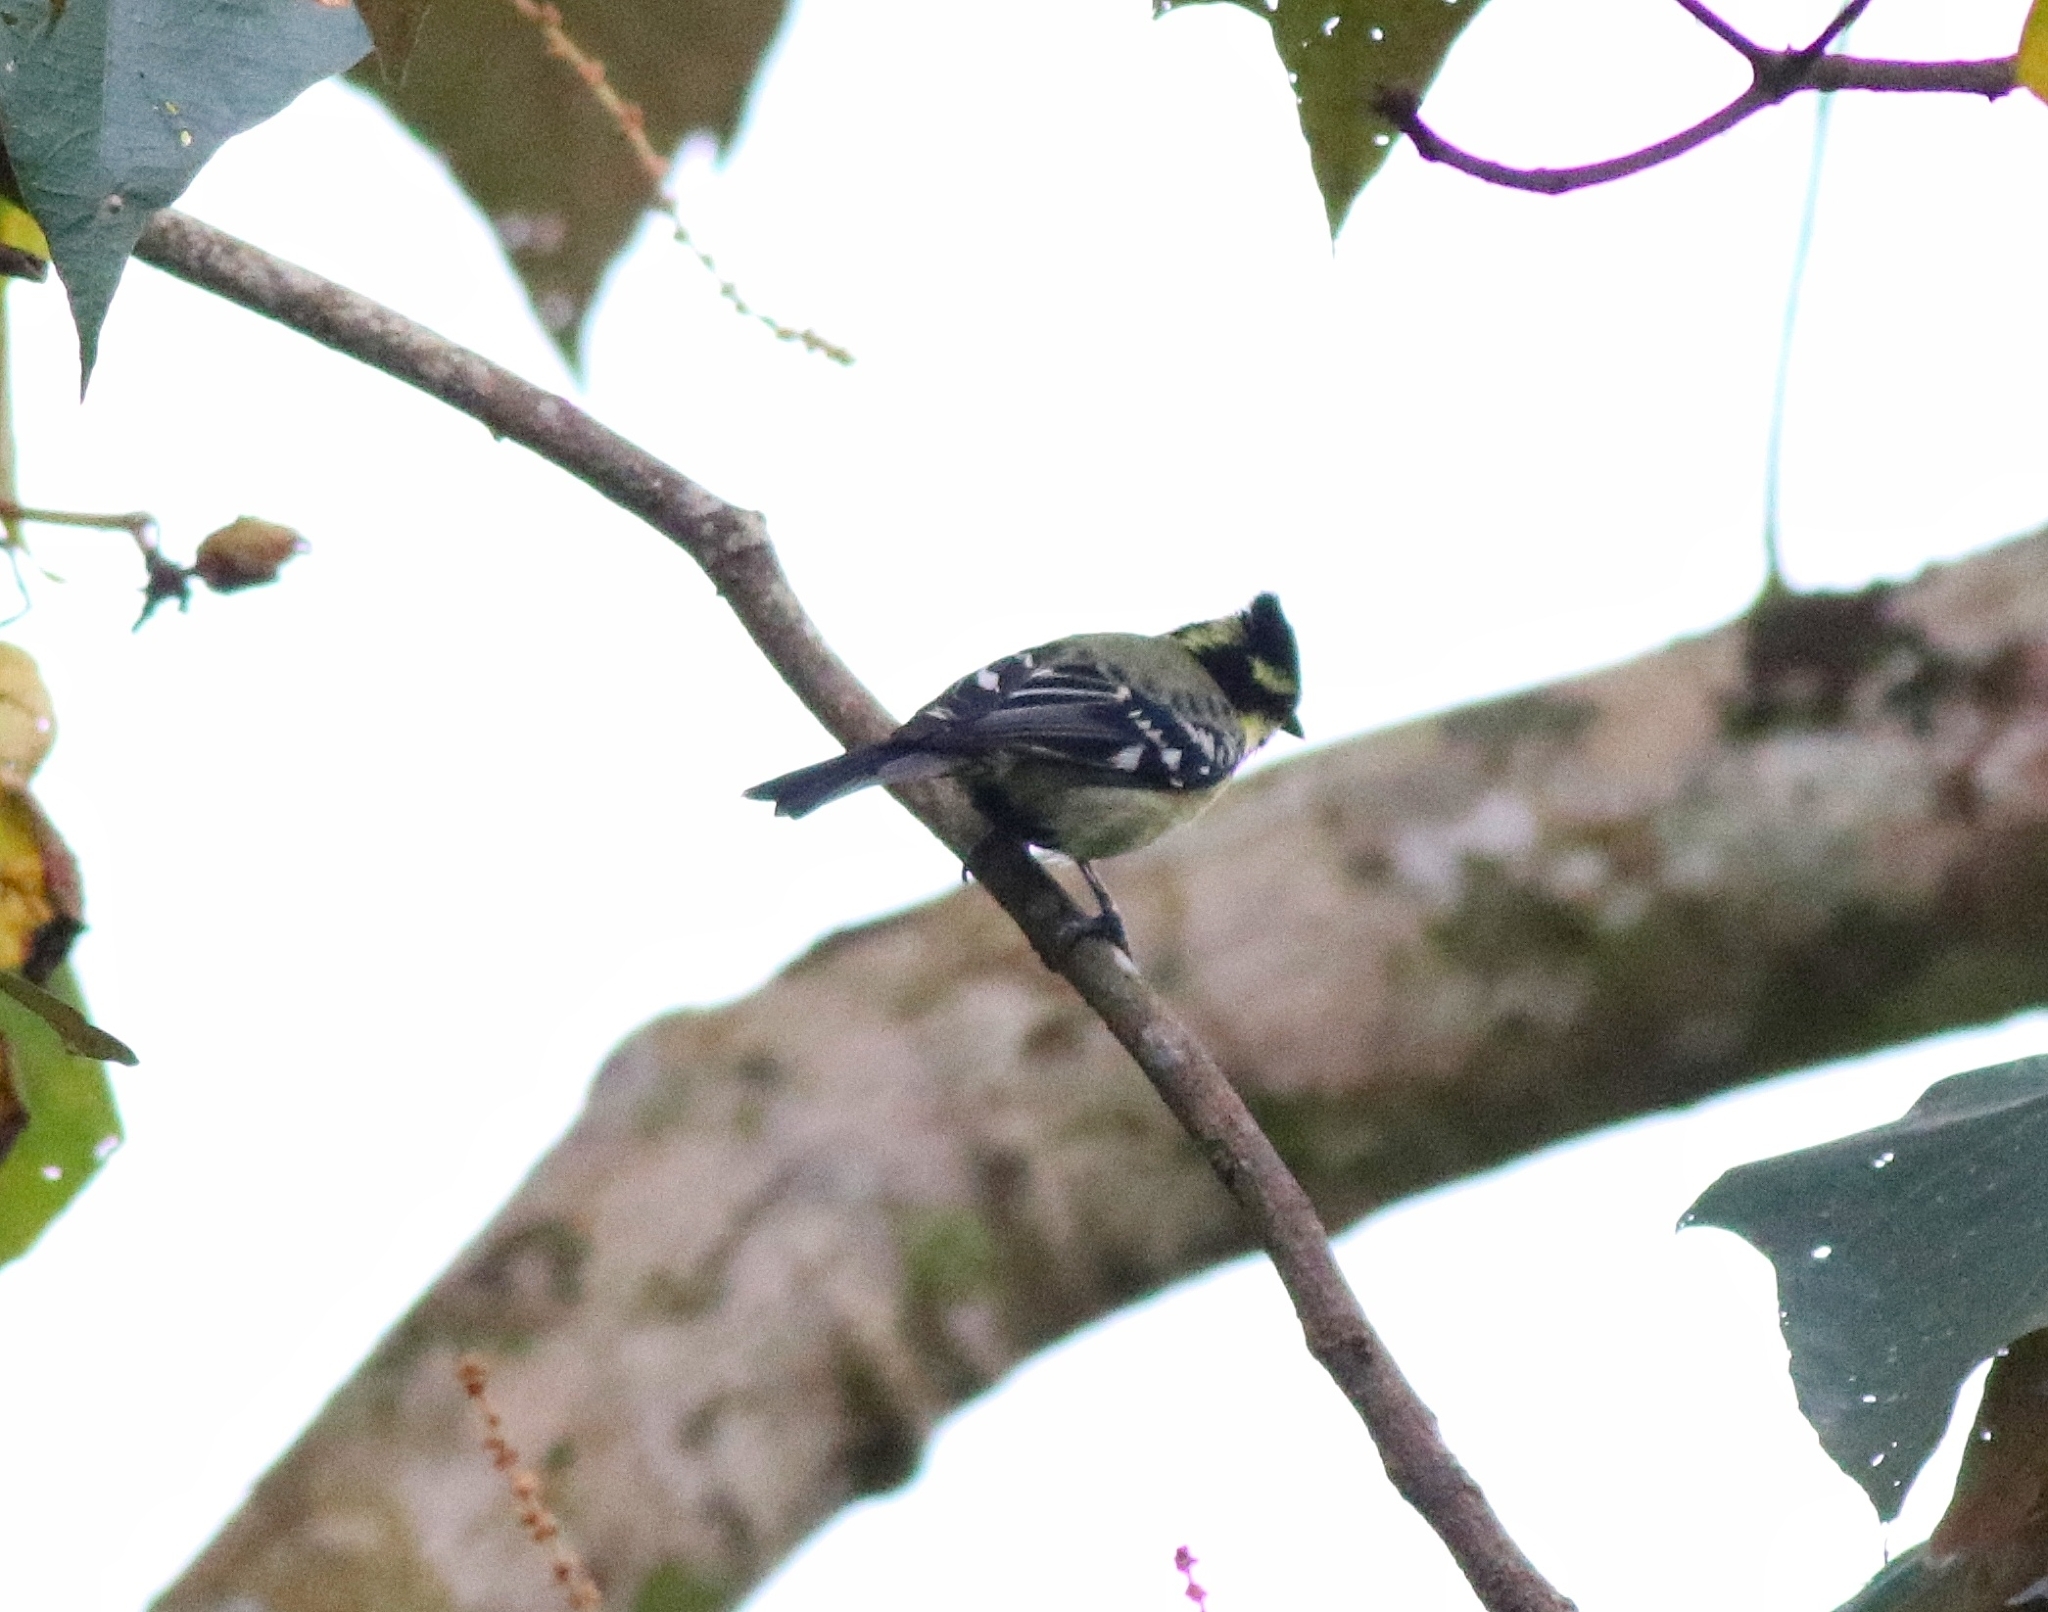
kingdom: Animalia
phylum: Chordata
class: Aves
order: Passeriformes
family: Paridae
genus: Parus
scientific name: Parus aplonotus
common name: Indian black-lored tit
